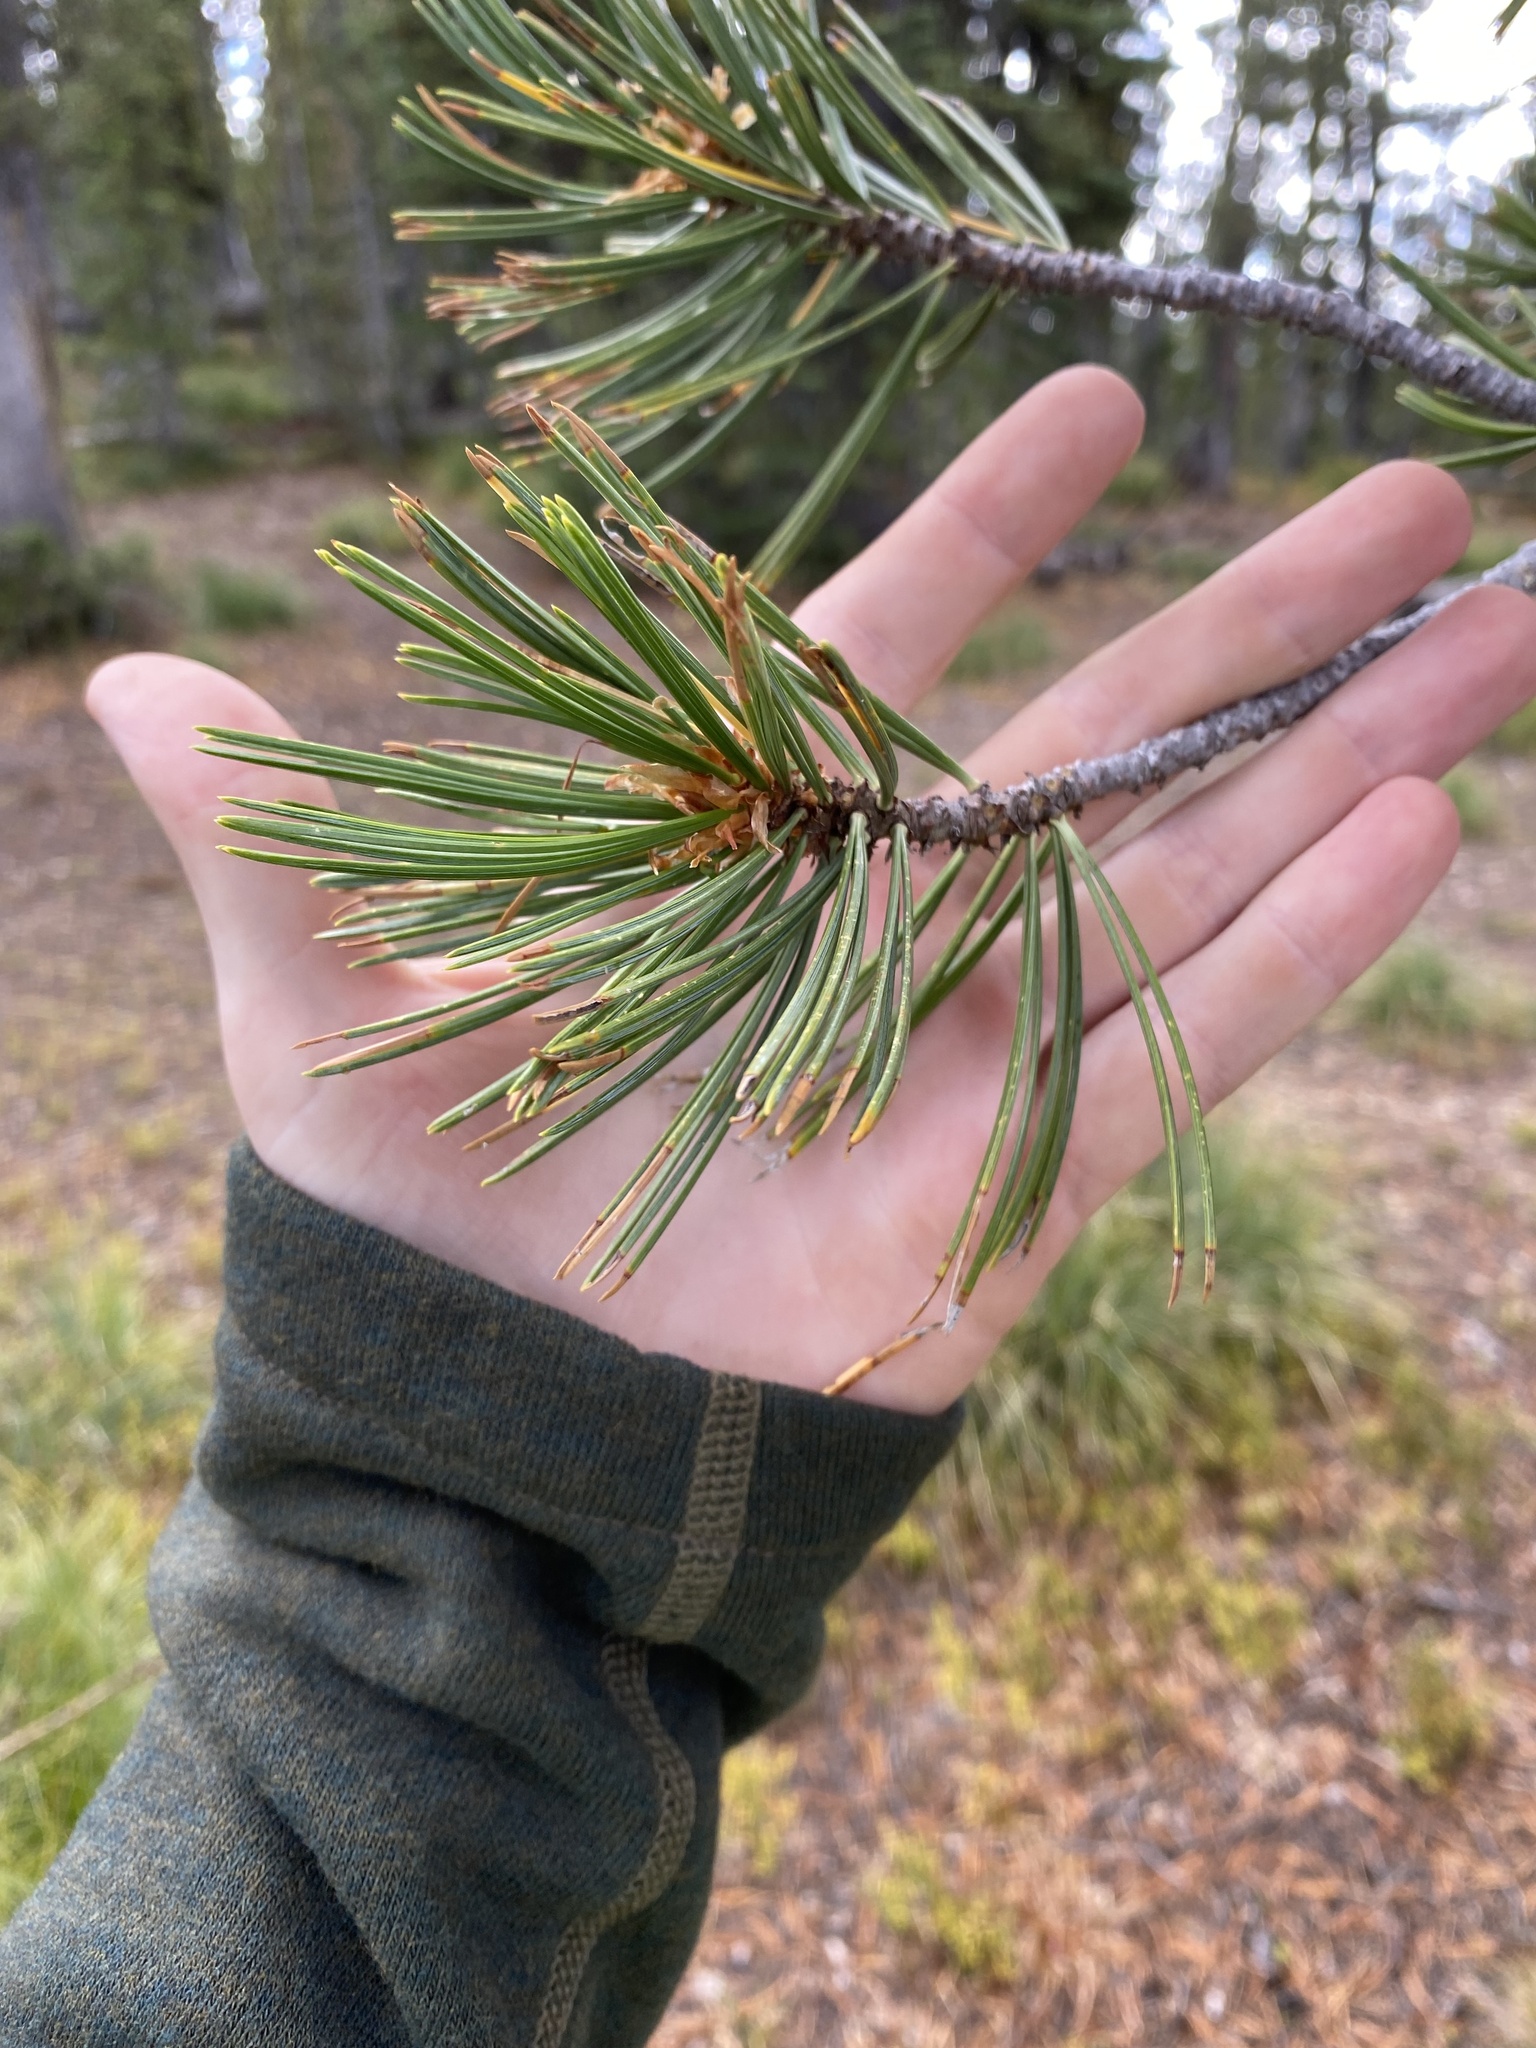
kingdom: Plantae
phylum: Tracheophyta
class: Pinopsida
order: Pinales
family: Pinaceae
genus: Pinus
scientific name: Pinus albicaulis
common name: Whitebark pine
